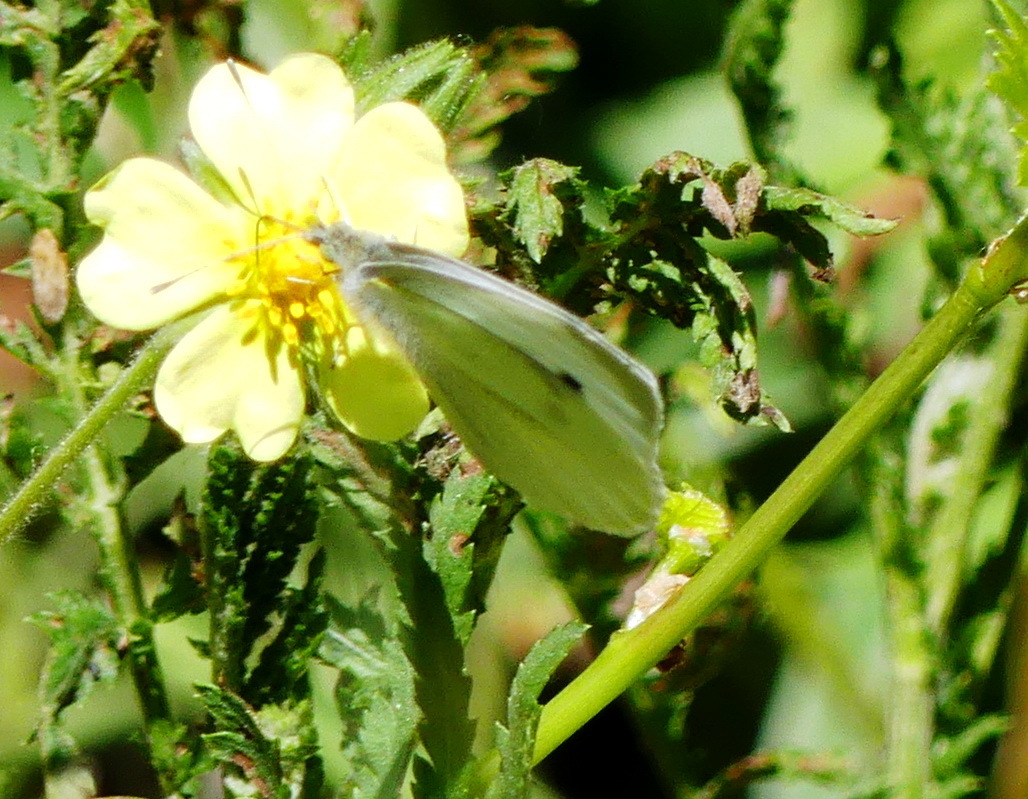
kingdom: Animalia
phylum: Arthropoda
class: Insecta
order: Lepidoptera
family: Pieridae
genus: Pieris
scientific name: Pieris rapae
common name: Small white
